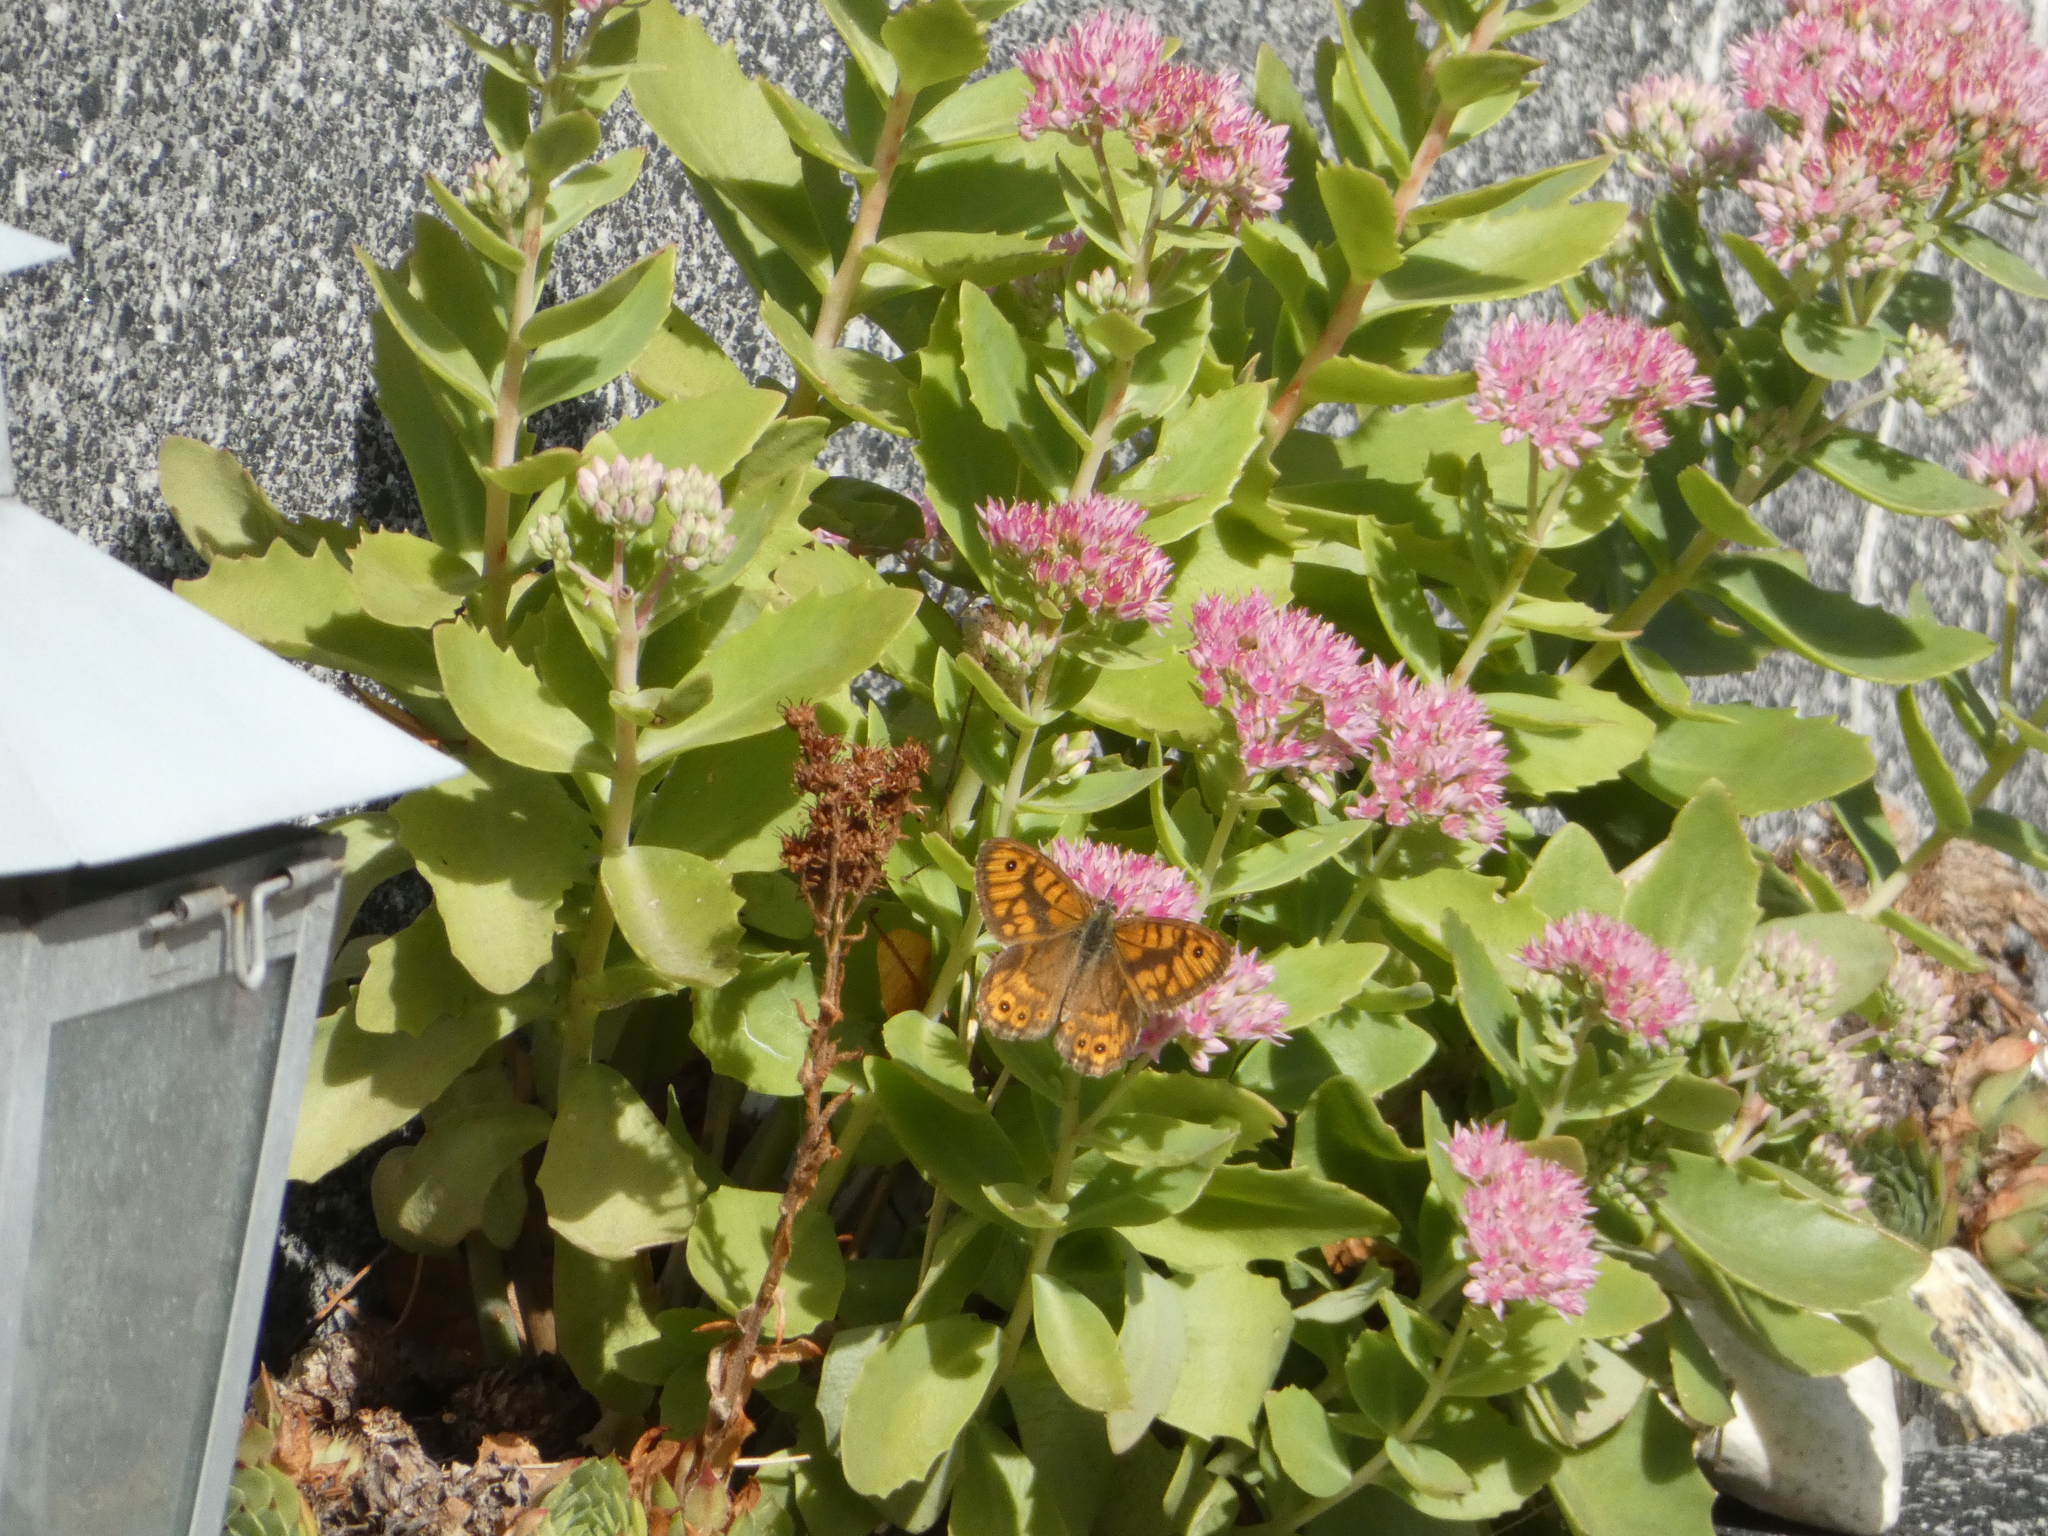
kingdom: Animalia
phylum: Arthropoda
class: Insecta
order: Lepidoptera
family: Nymphalidae
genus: Pararge
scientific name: Pararge Lasiommata megera
